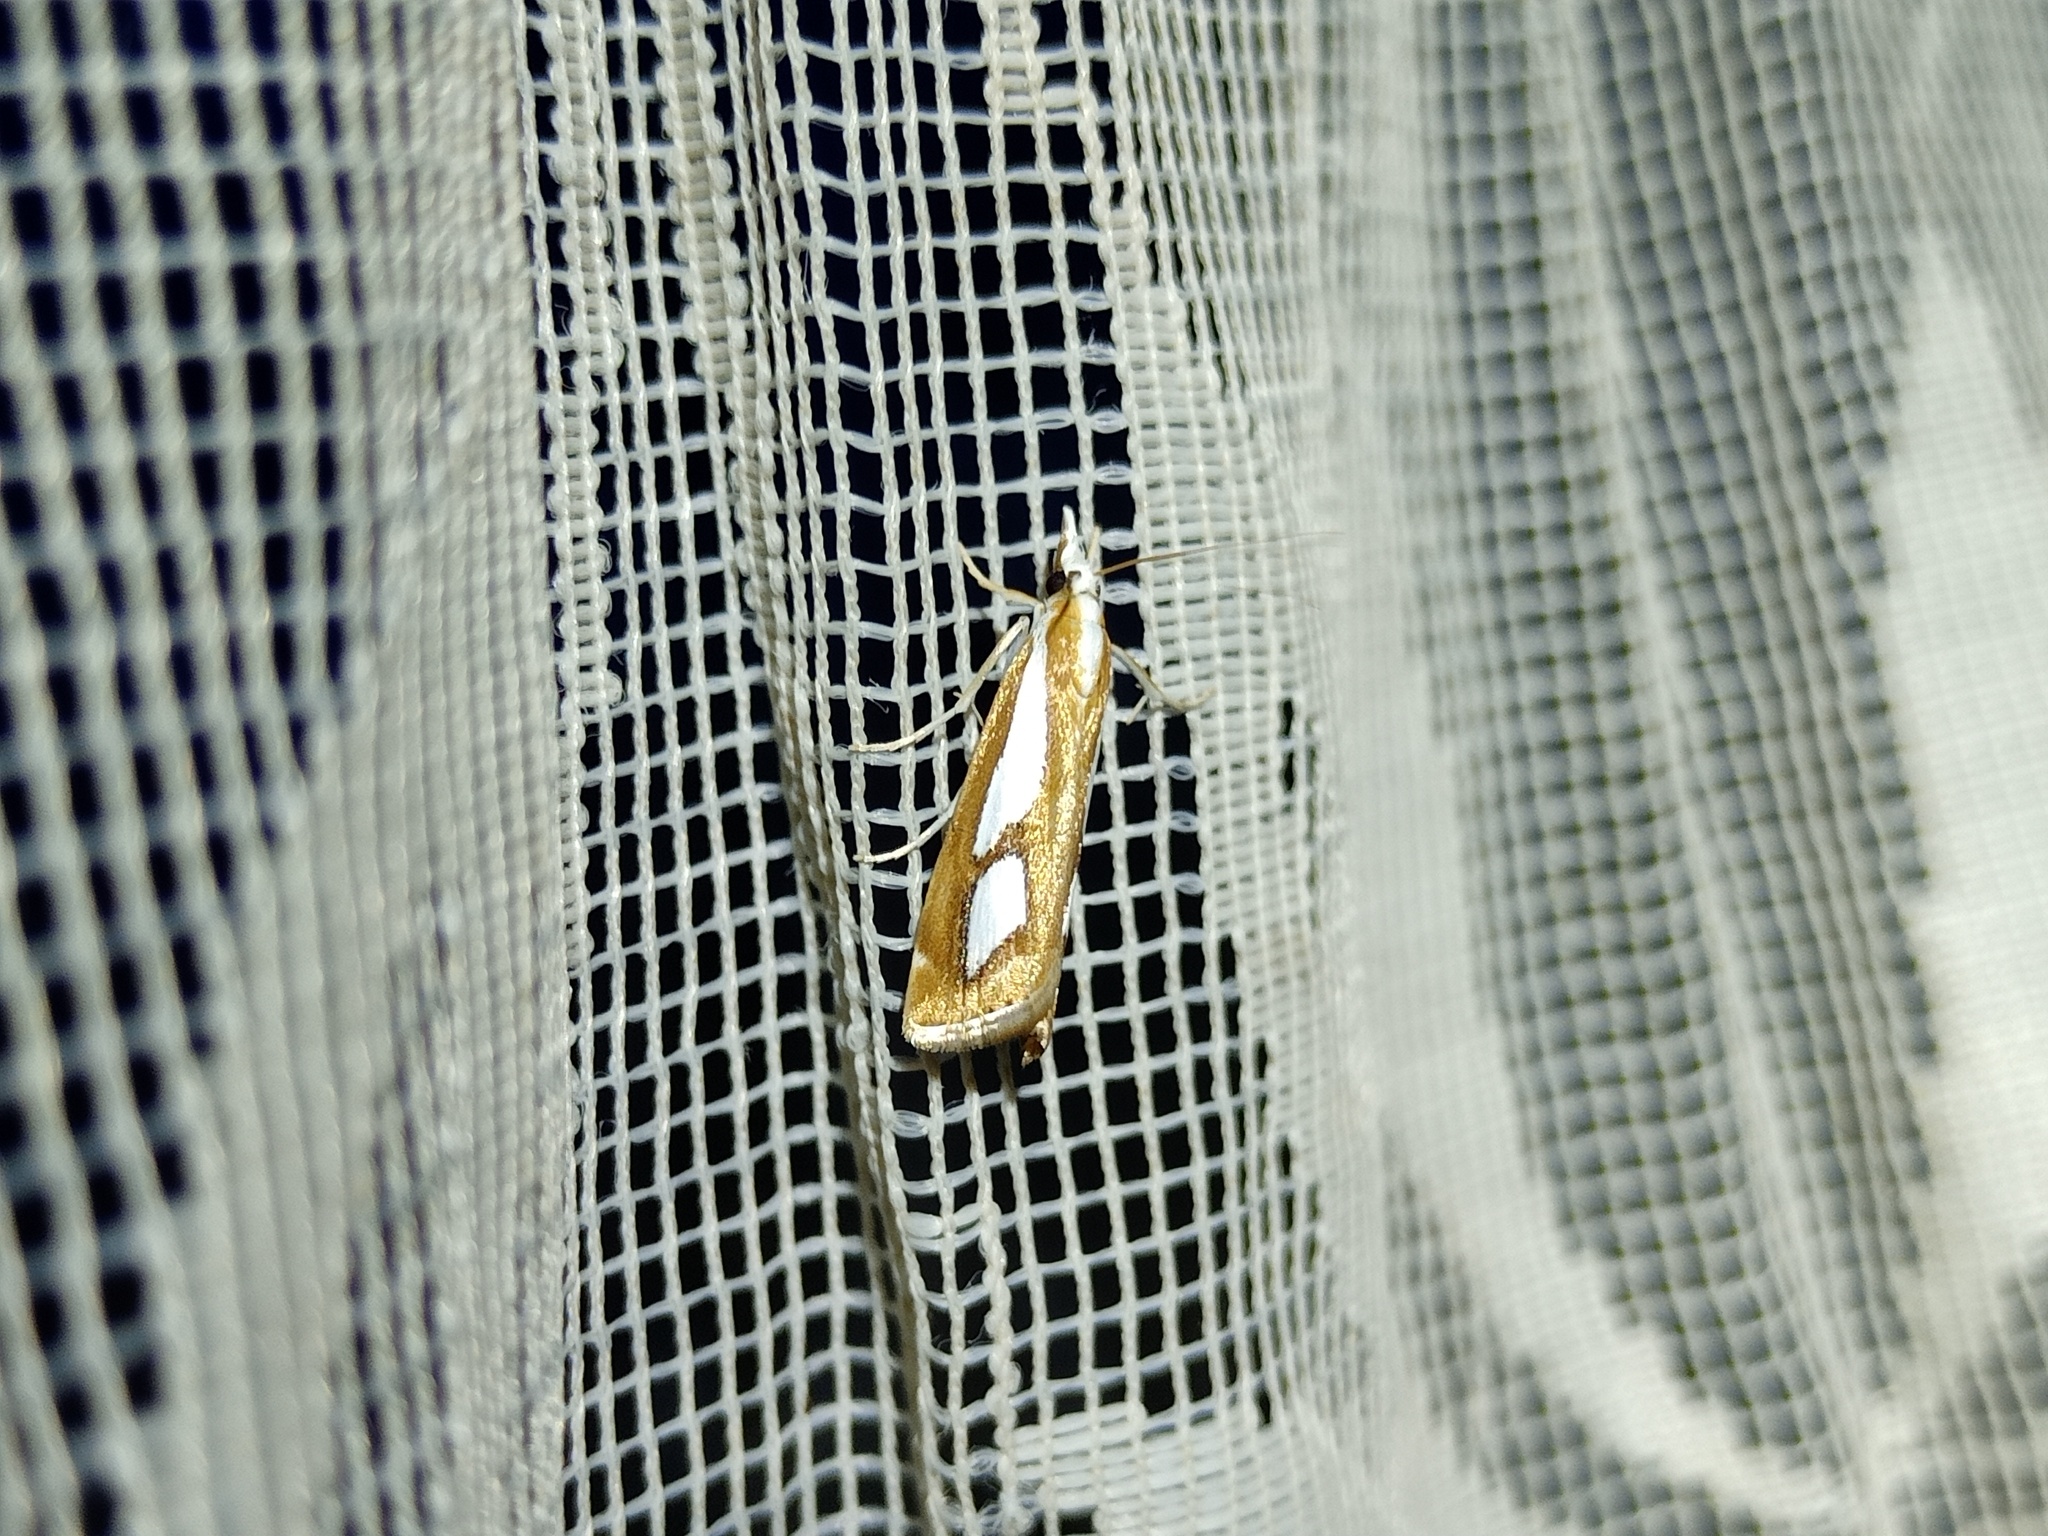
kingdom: Animalia
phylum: Arthropoda
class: Insecta
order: Lepidoptera
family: Crambidae
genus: Catoptria
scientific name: Catoptria pinella
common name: Pearl grass-veneer
